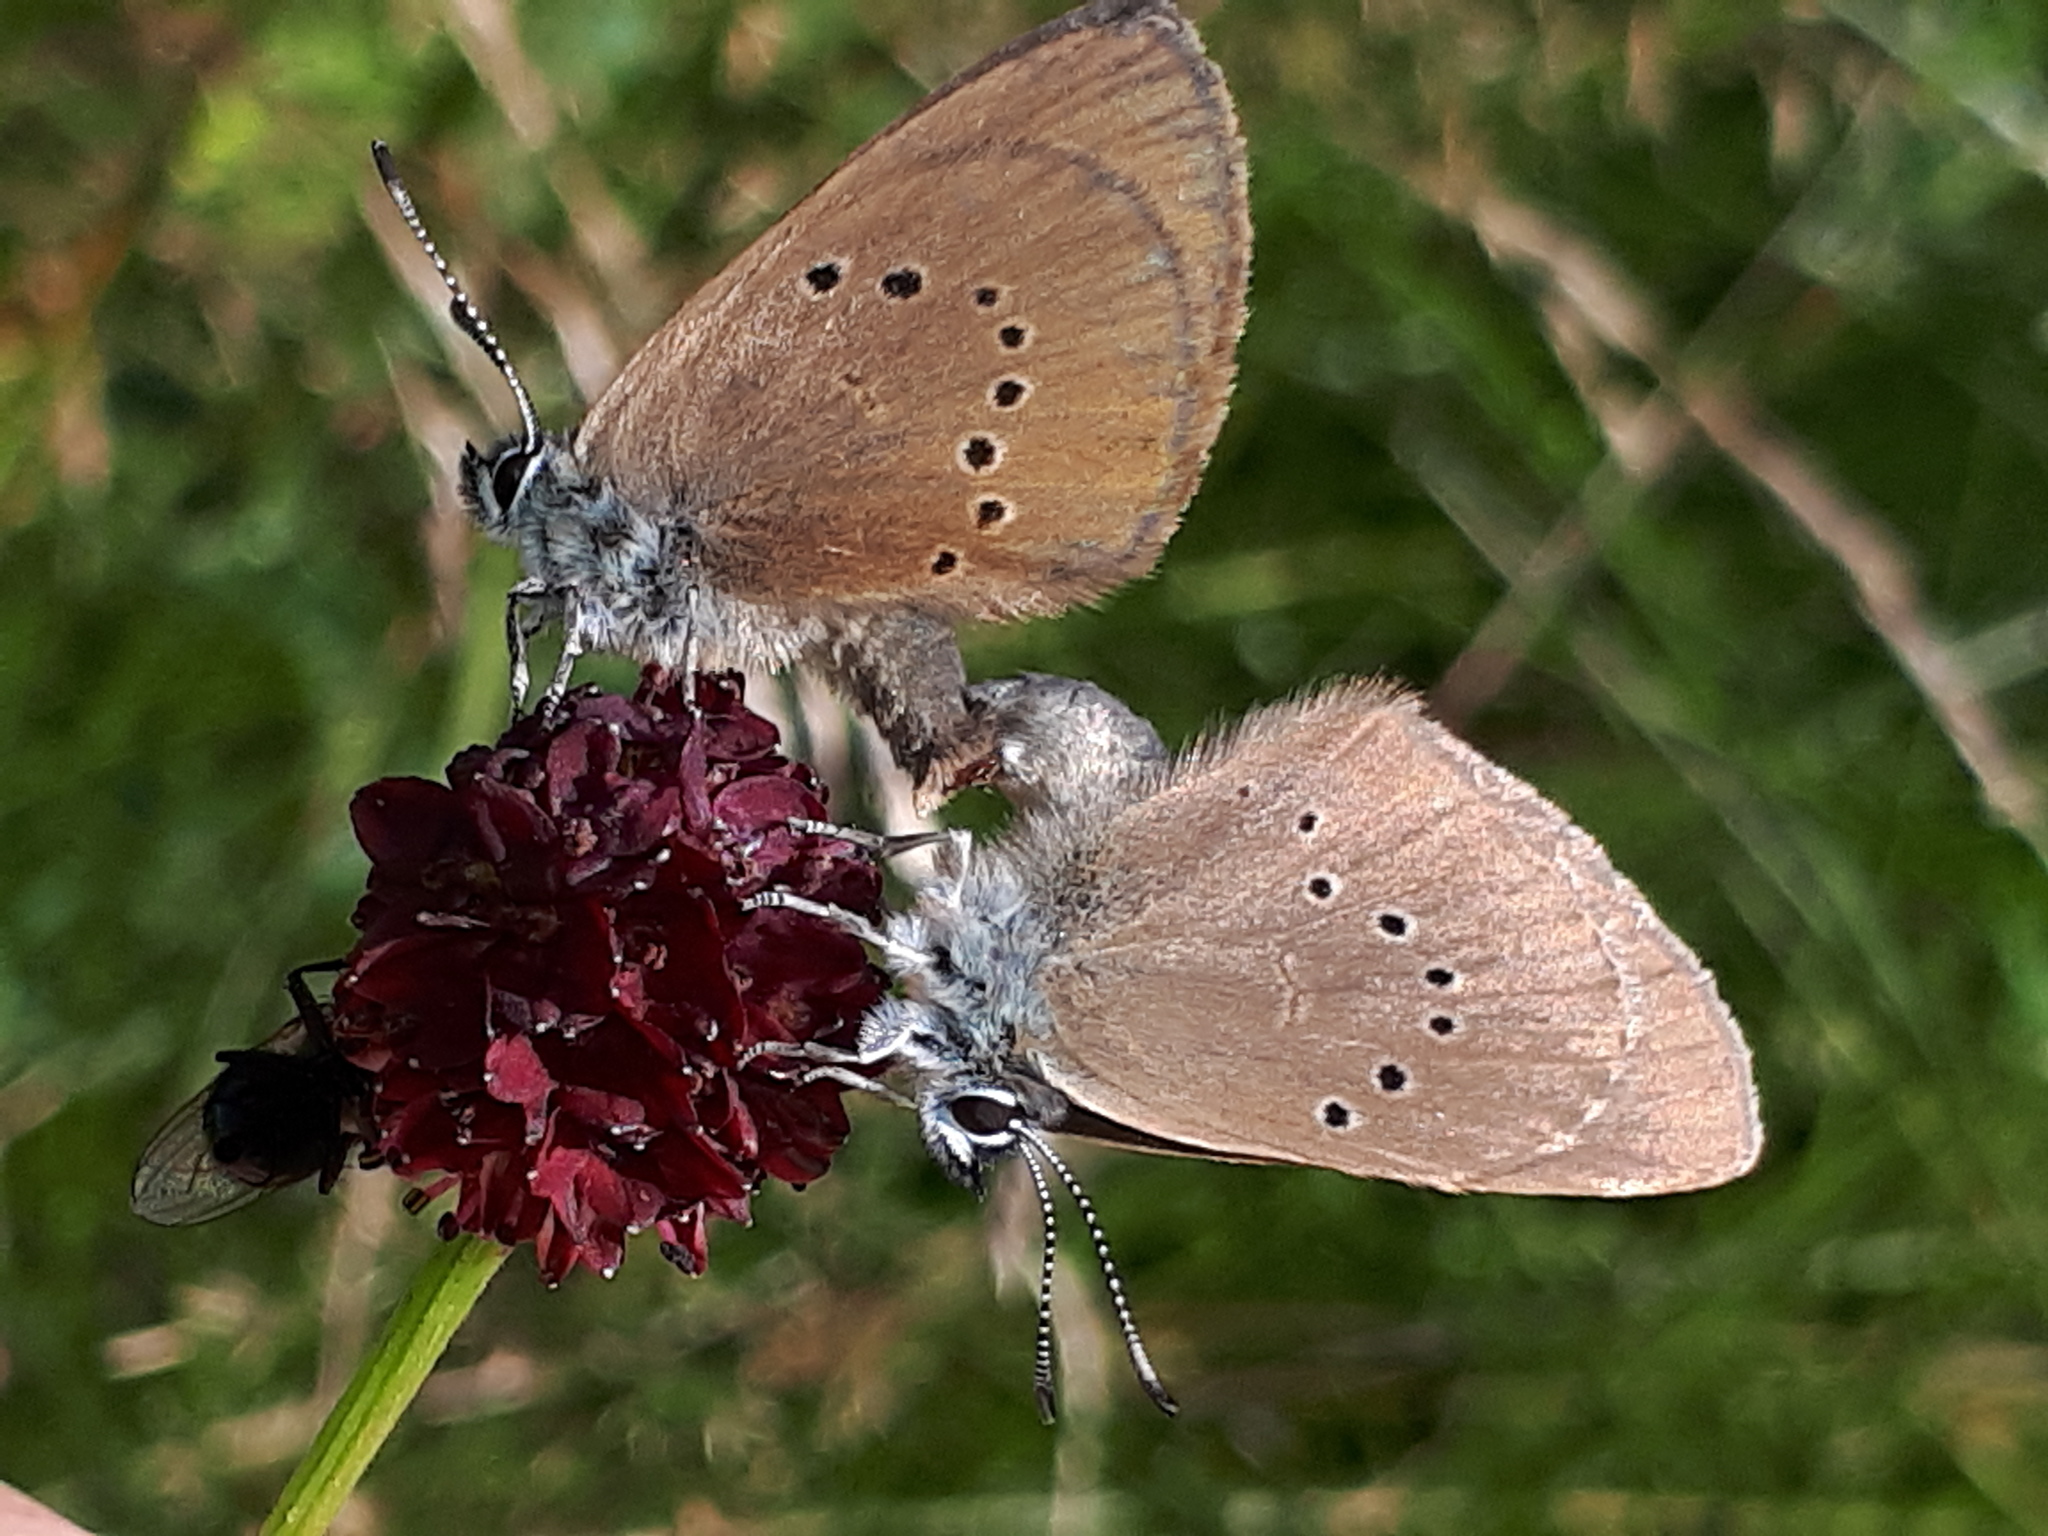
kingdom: Animalia
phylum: Arthropoda
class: Insecta
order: Lepidoptera
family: Lycaenidae
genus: Maculinea
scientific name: Maculinea nausithous
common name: Dusky large blue
